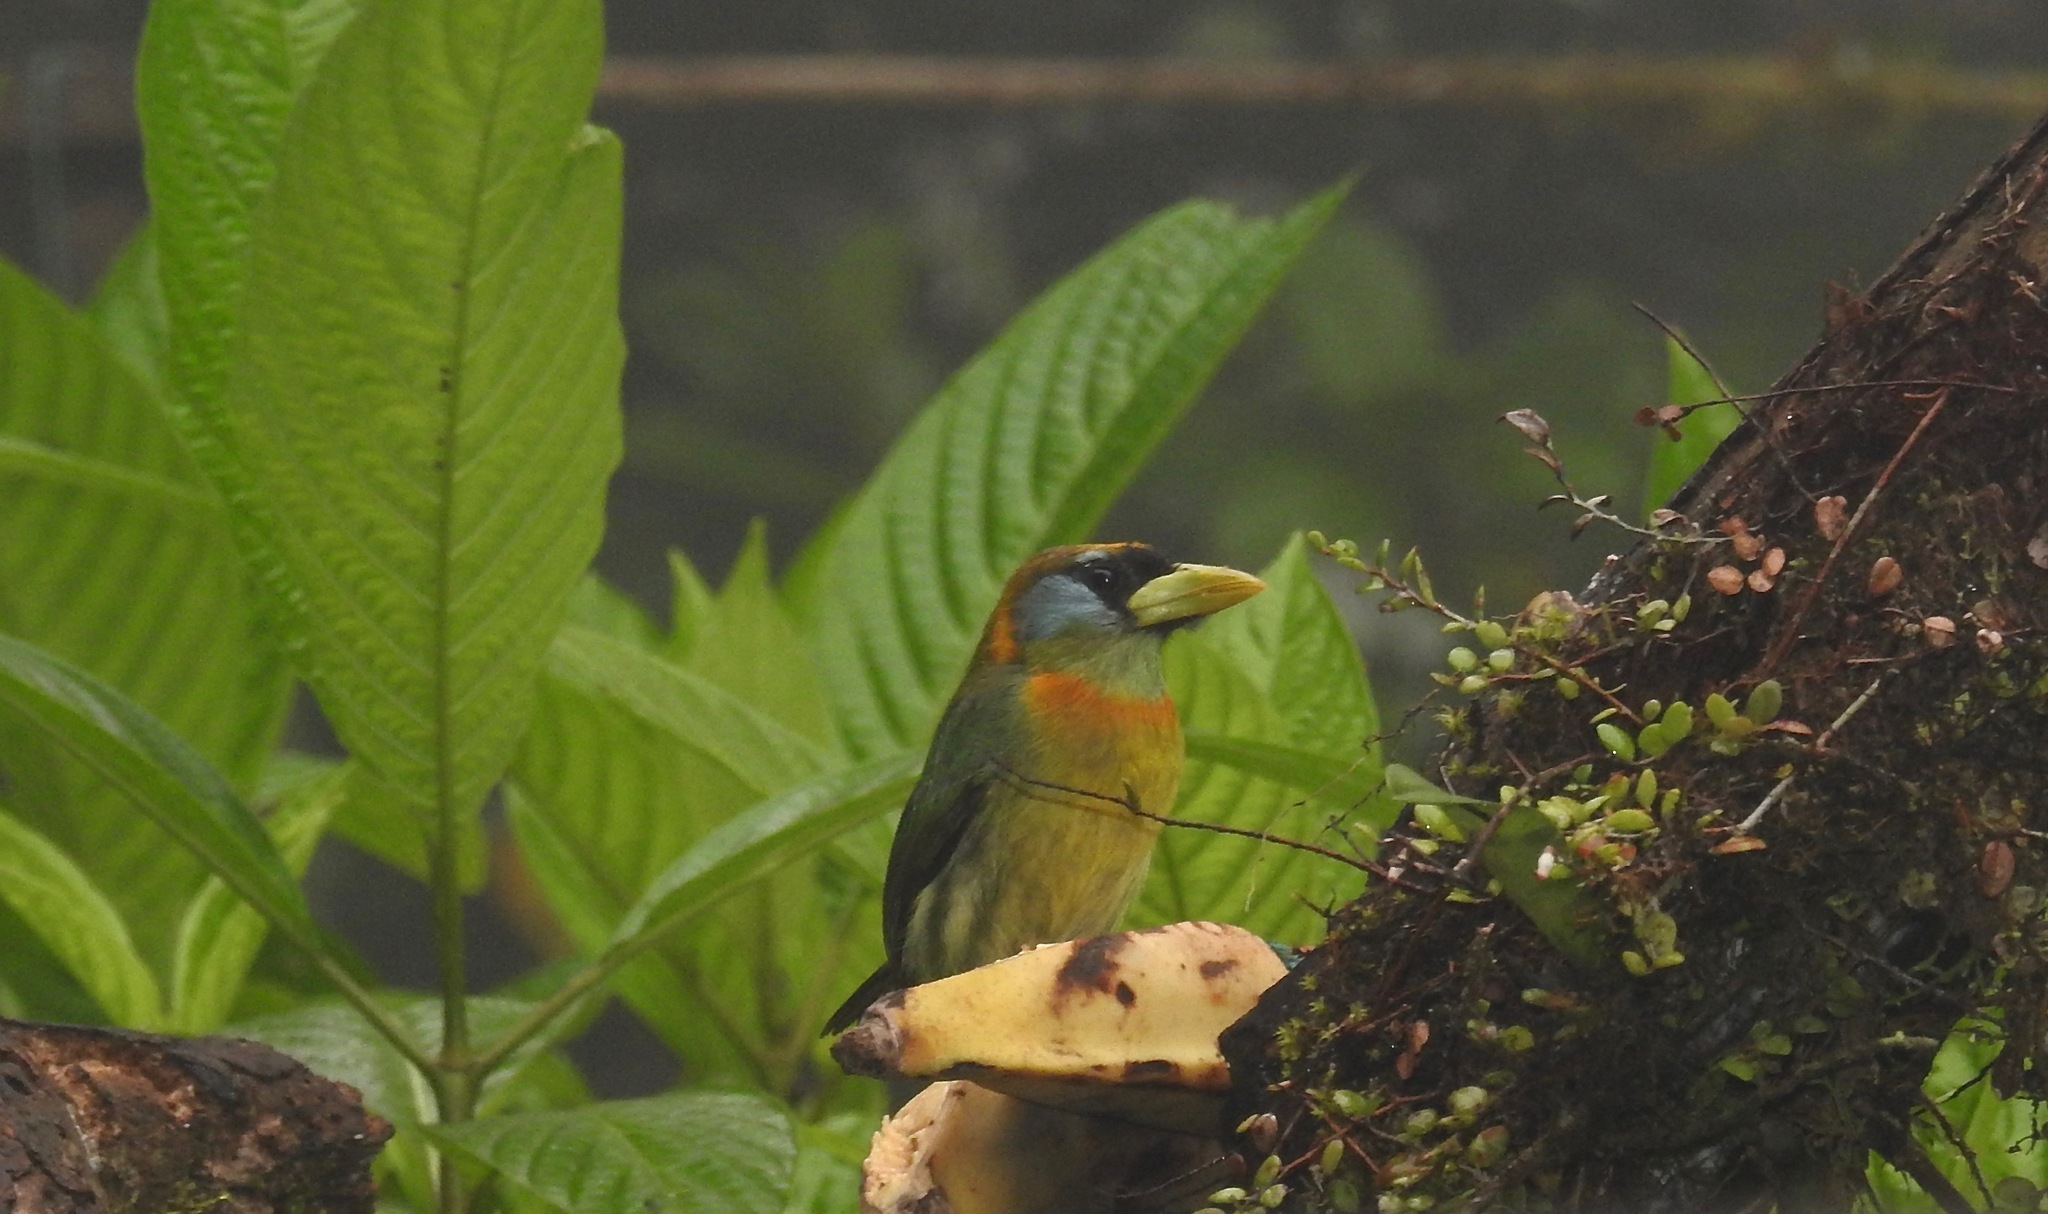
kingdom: Animalia
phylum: Chordata
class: Aves
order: Piciformes
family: Capitonidae
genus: Eubucco
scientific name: Eubucco bourcierii
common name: Red-headed barbet
